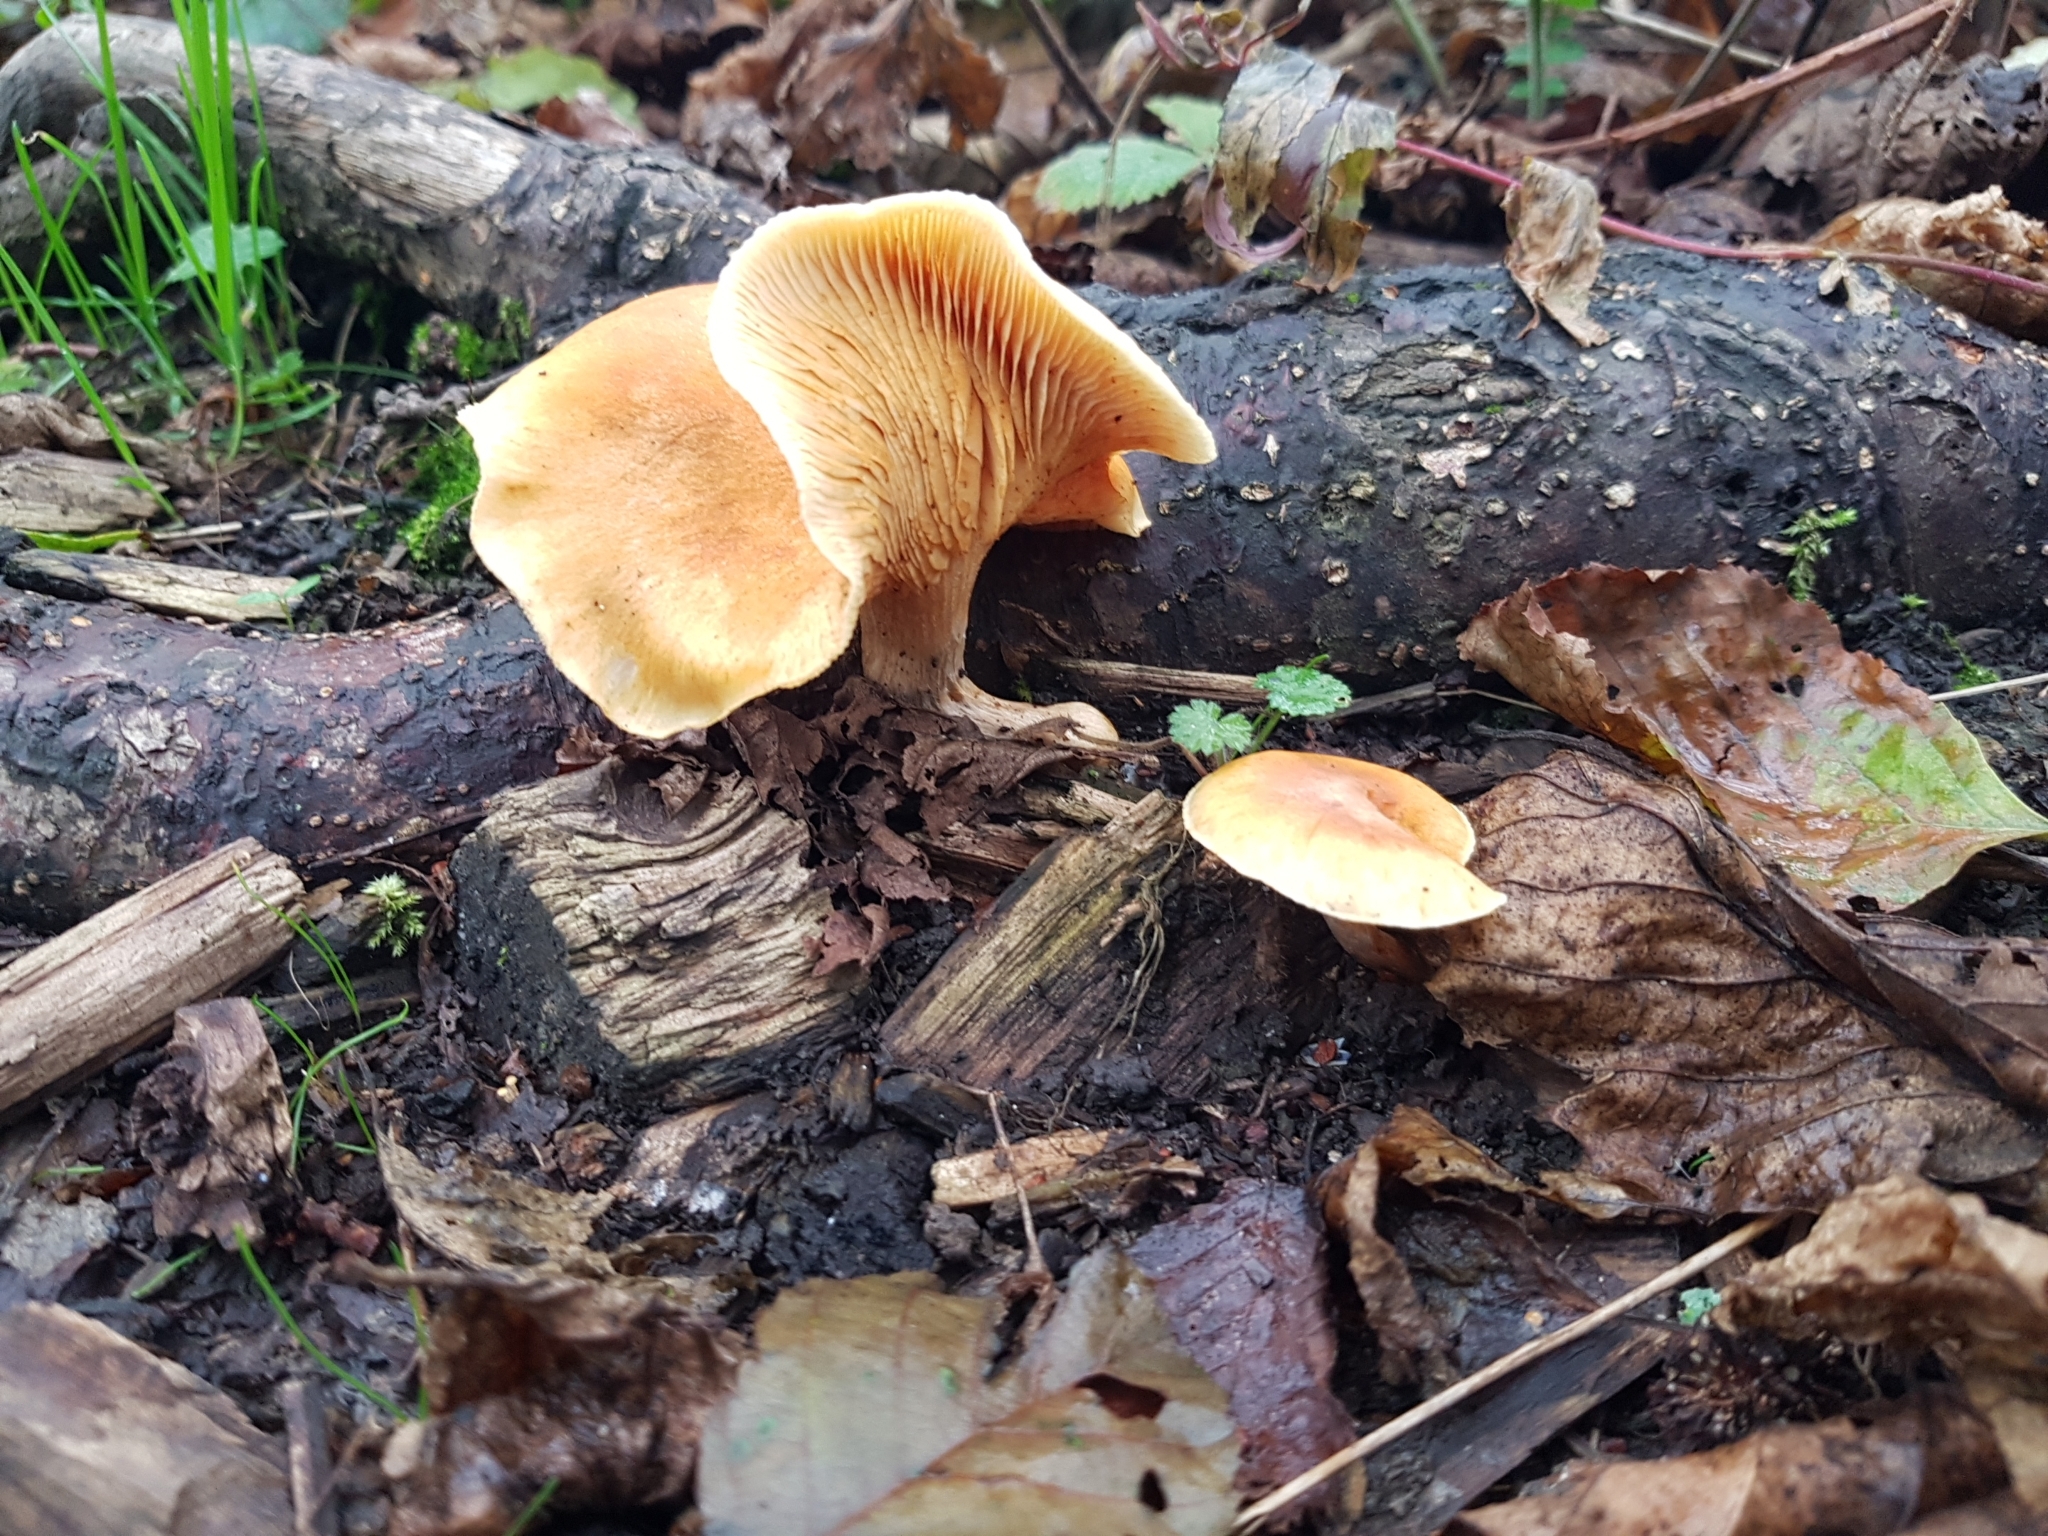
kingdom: Fungi
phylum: Basidiomycota
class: Agaricomycetes
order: Agaricales
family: Hymenogastraceae
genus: Gymnopilus
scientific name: Gymnopilus penetrans
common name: Common rustgill
